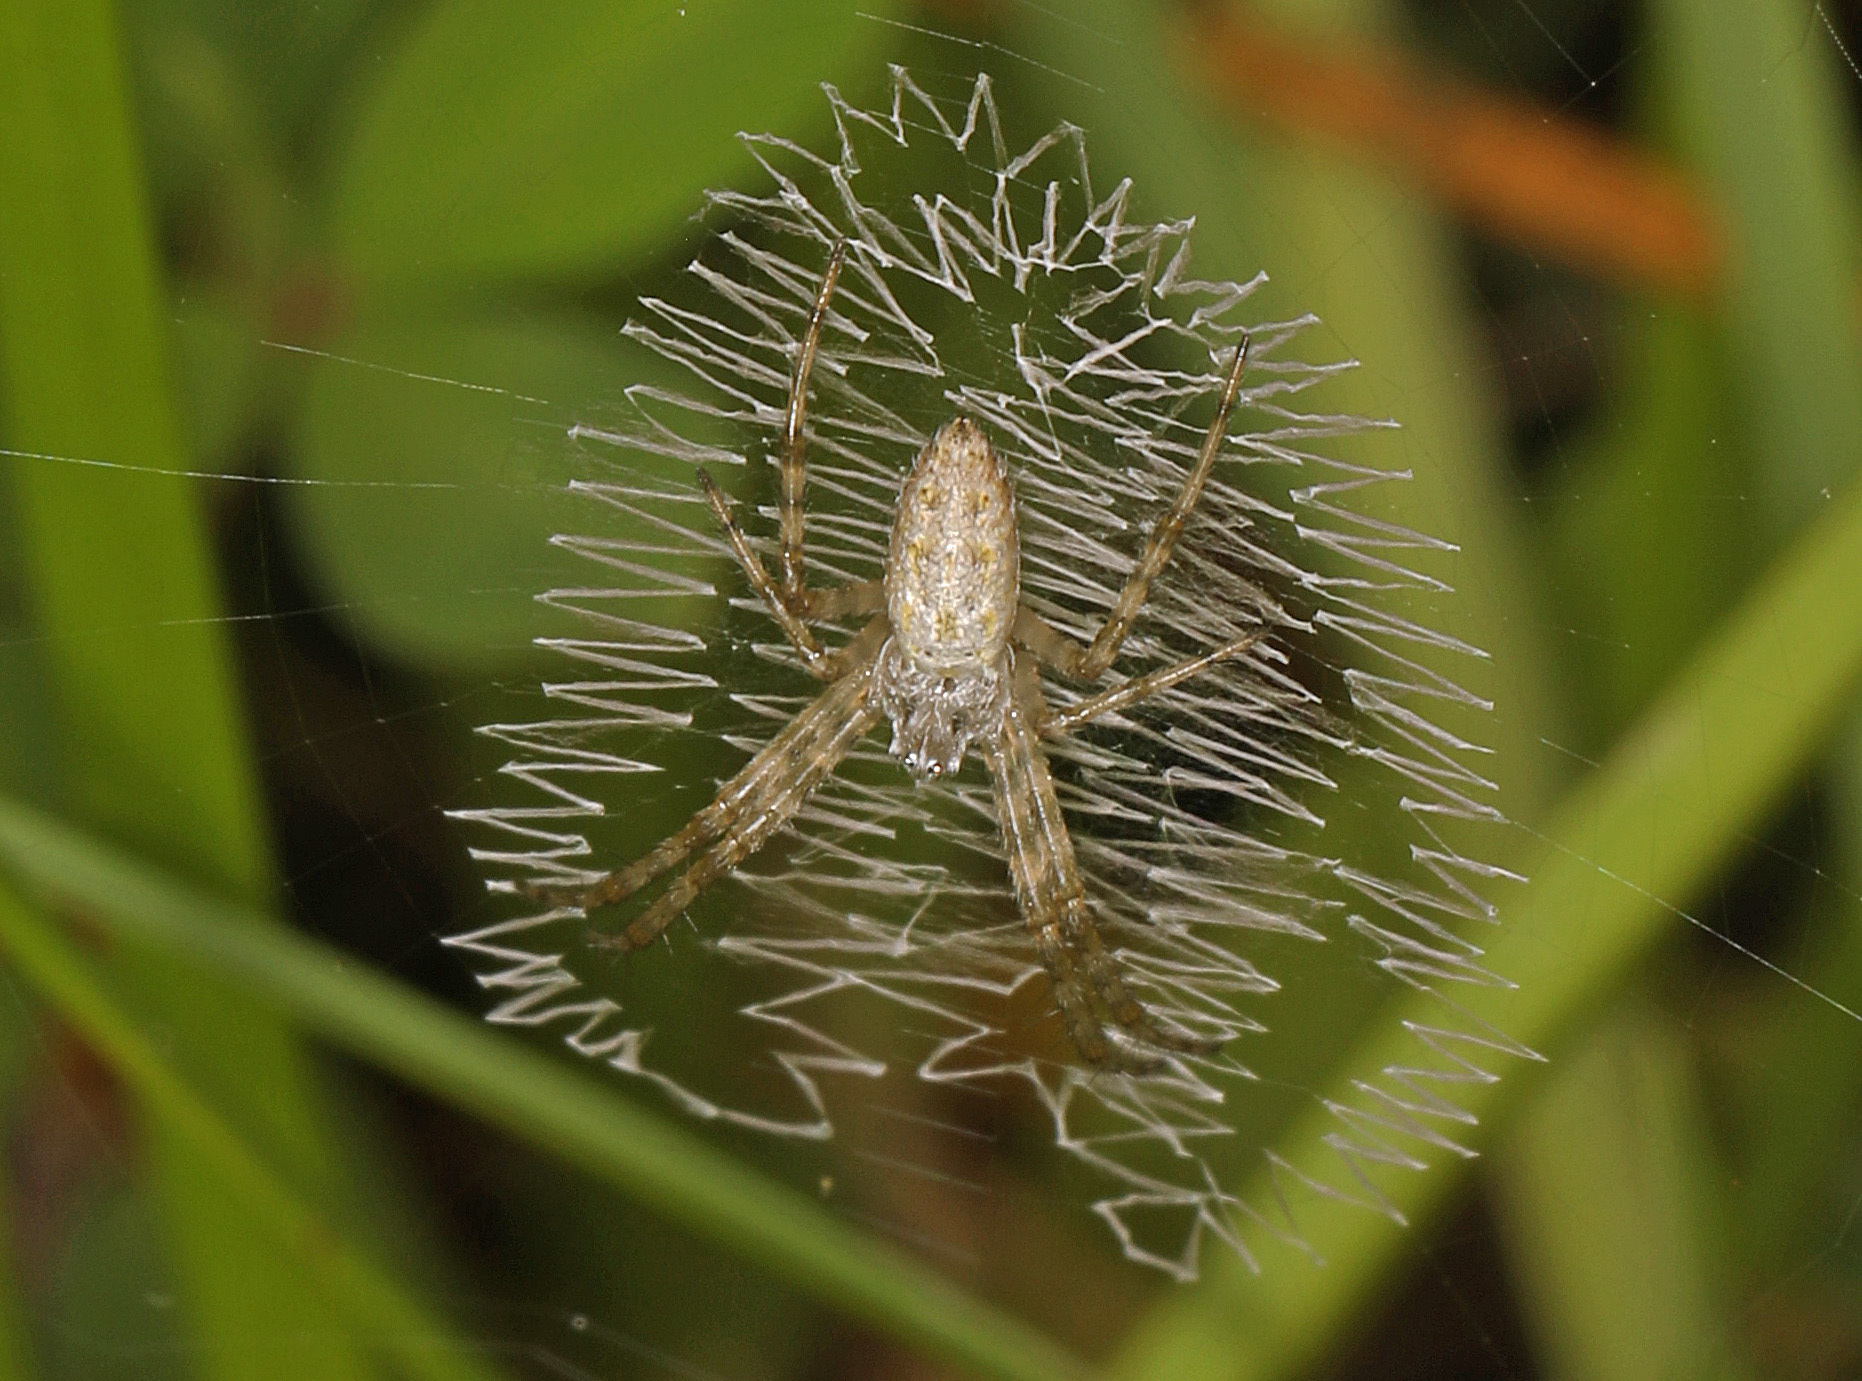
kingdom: Animalia
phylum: Arthropoda
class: Arachnida
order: Araneae
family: Araneidae
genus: Argiope
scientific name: Argiope aurantia
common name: Orb weavers
